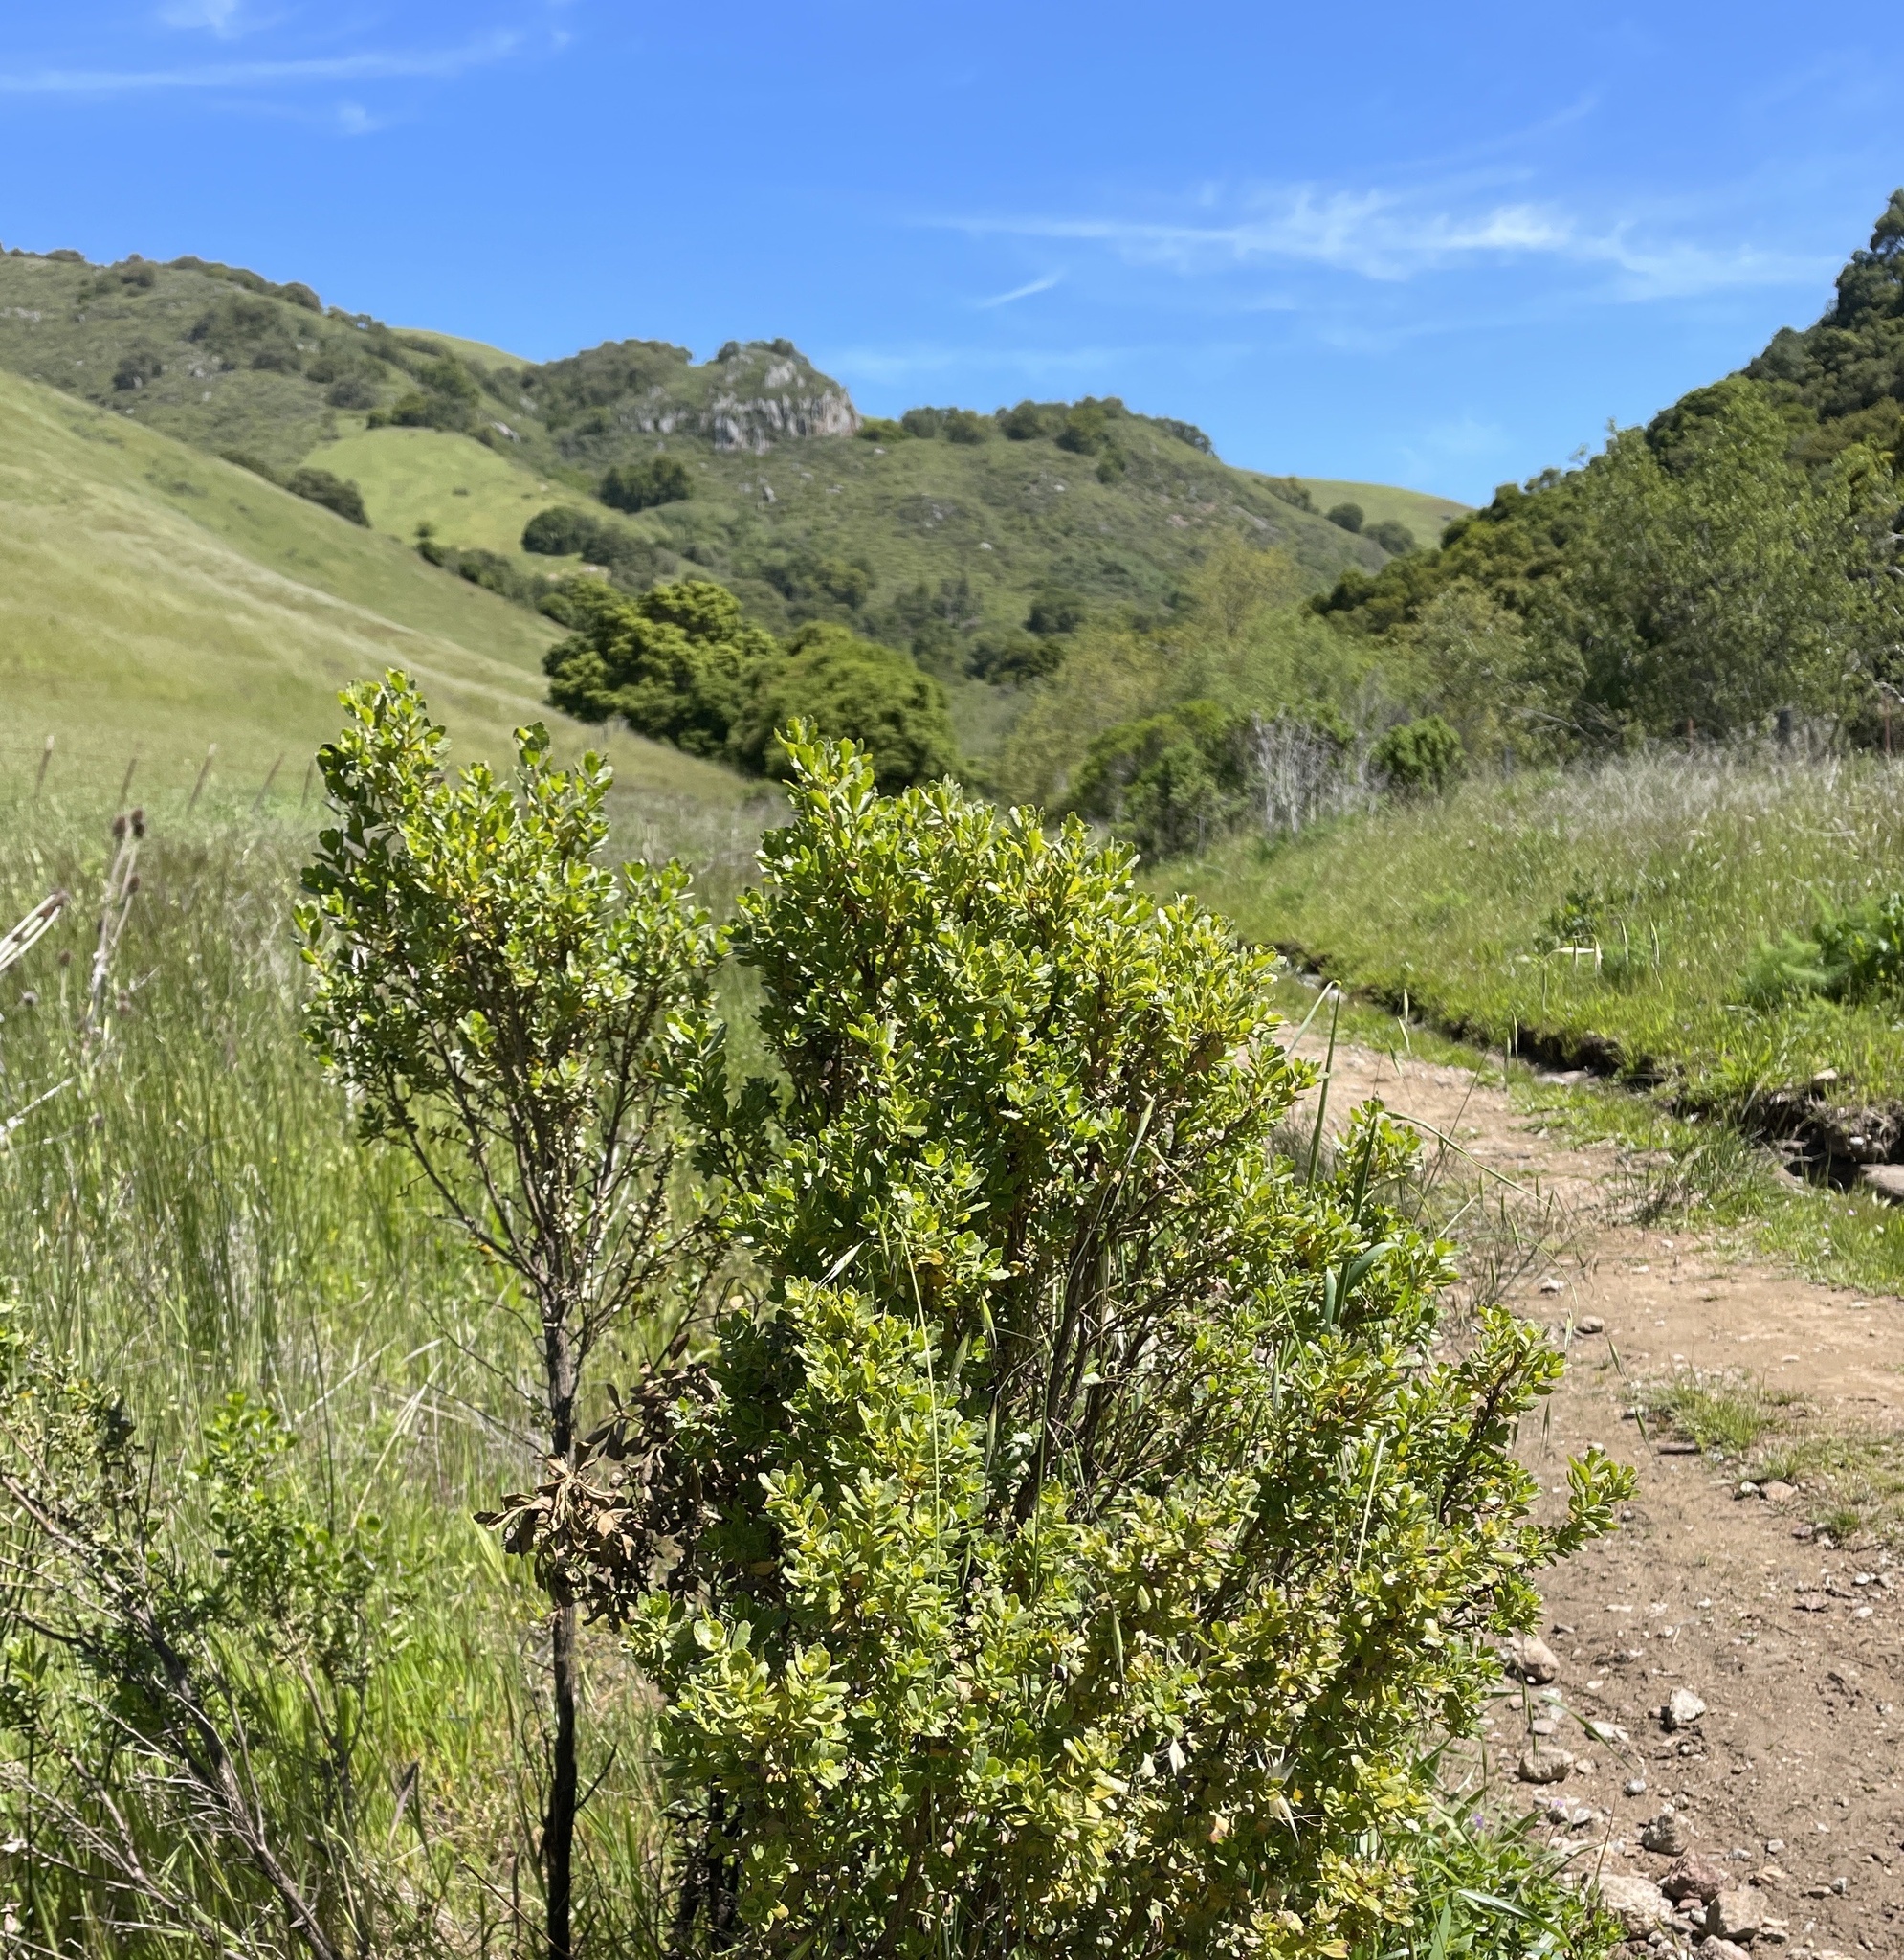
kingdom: Plantae
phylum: Tracheophyta
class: Magnoliopsida
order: Asterales
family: Asteraceae
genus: Baccharis
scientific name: Baccharis pilularis
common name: Coyotebrush
